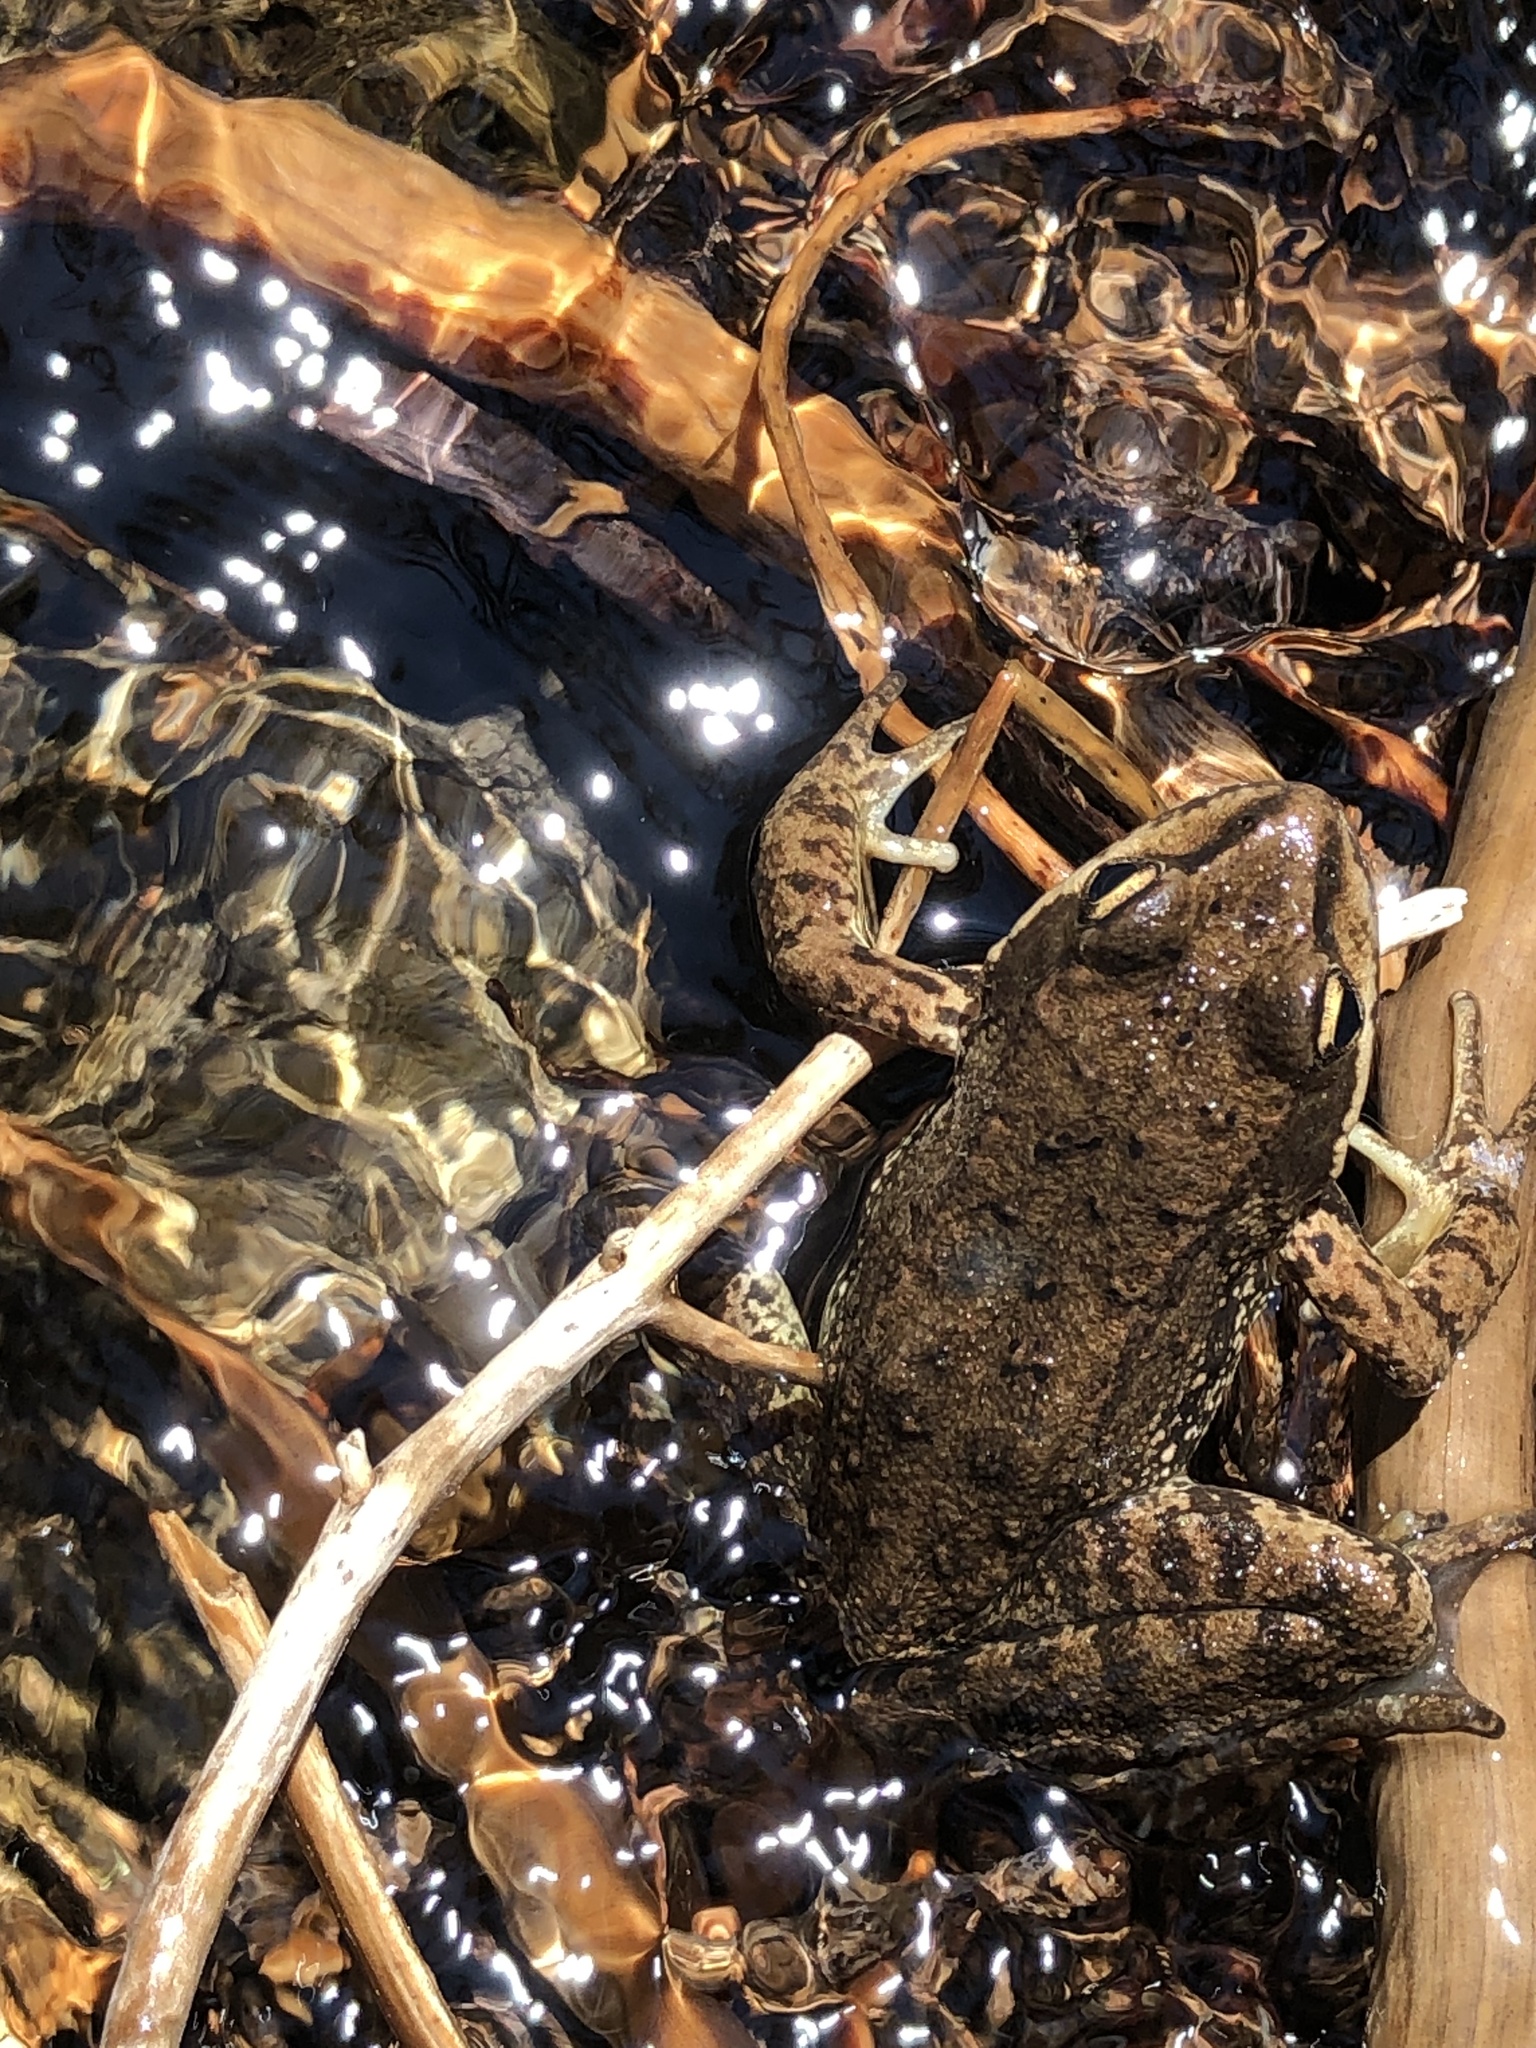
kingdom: Animalia
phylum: Chordata
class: Amphibia
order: Anura
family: Ranidae
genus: Rana
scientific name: Rana cascadae
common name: Cascades frog
